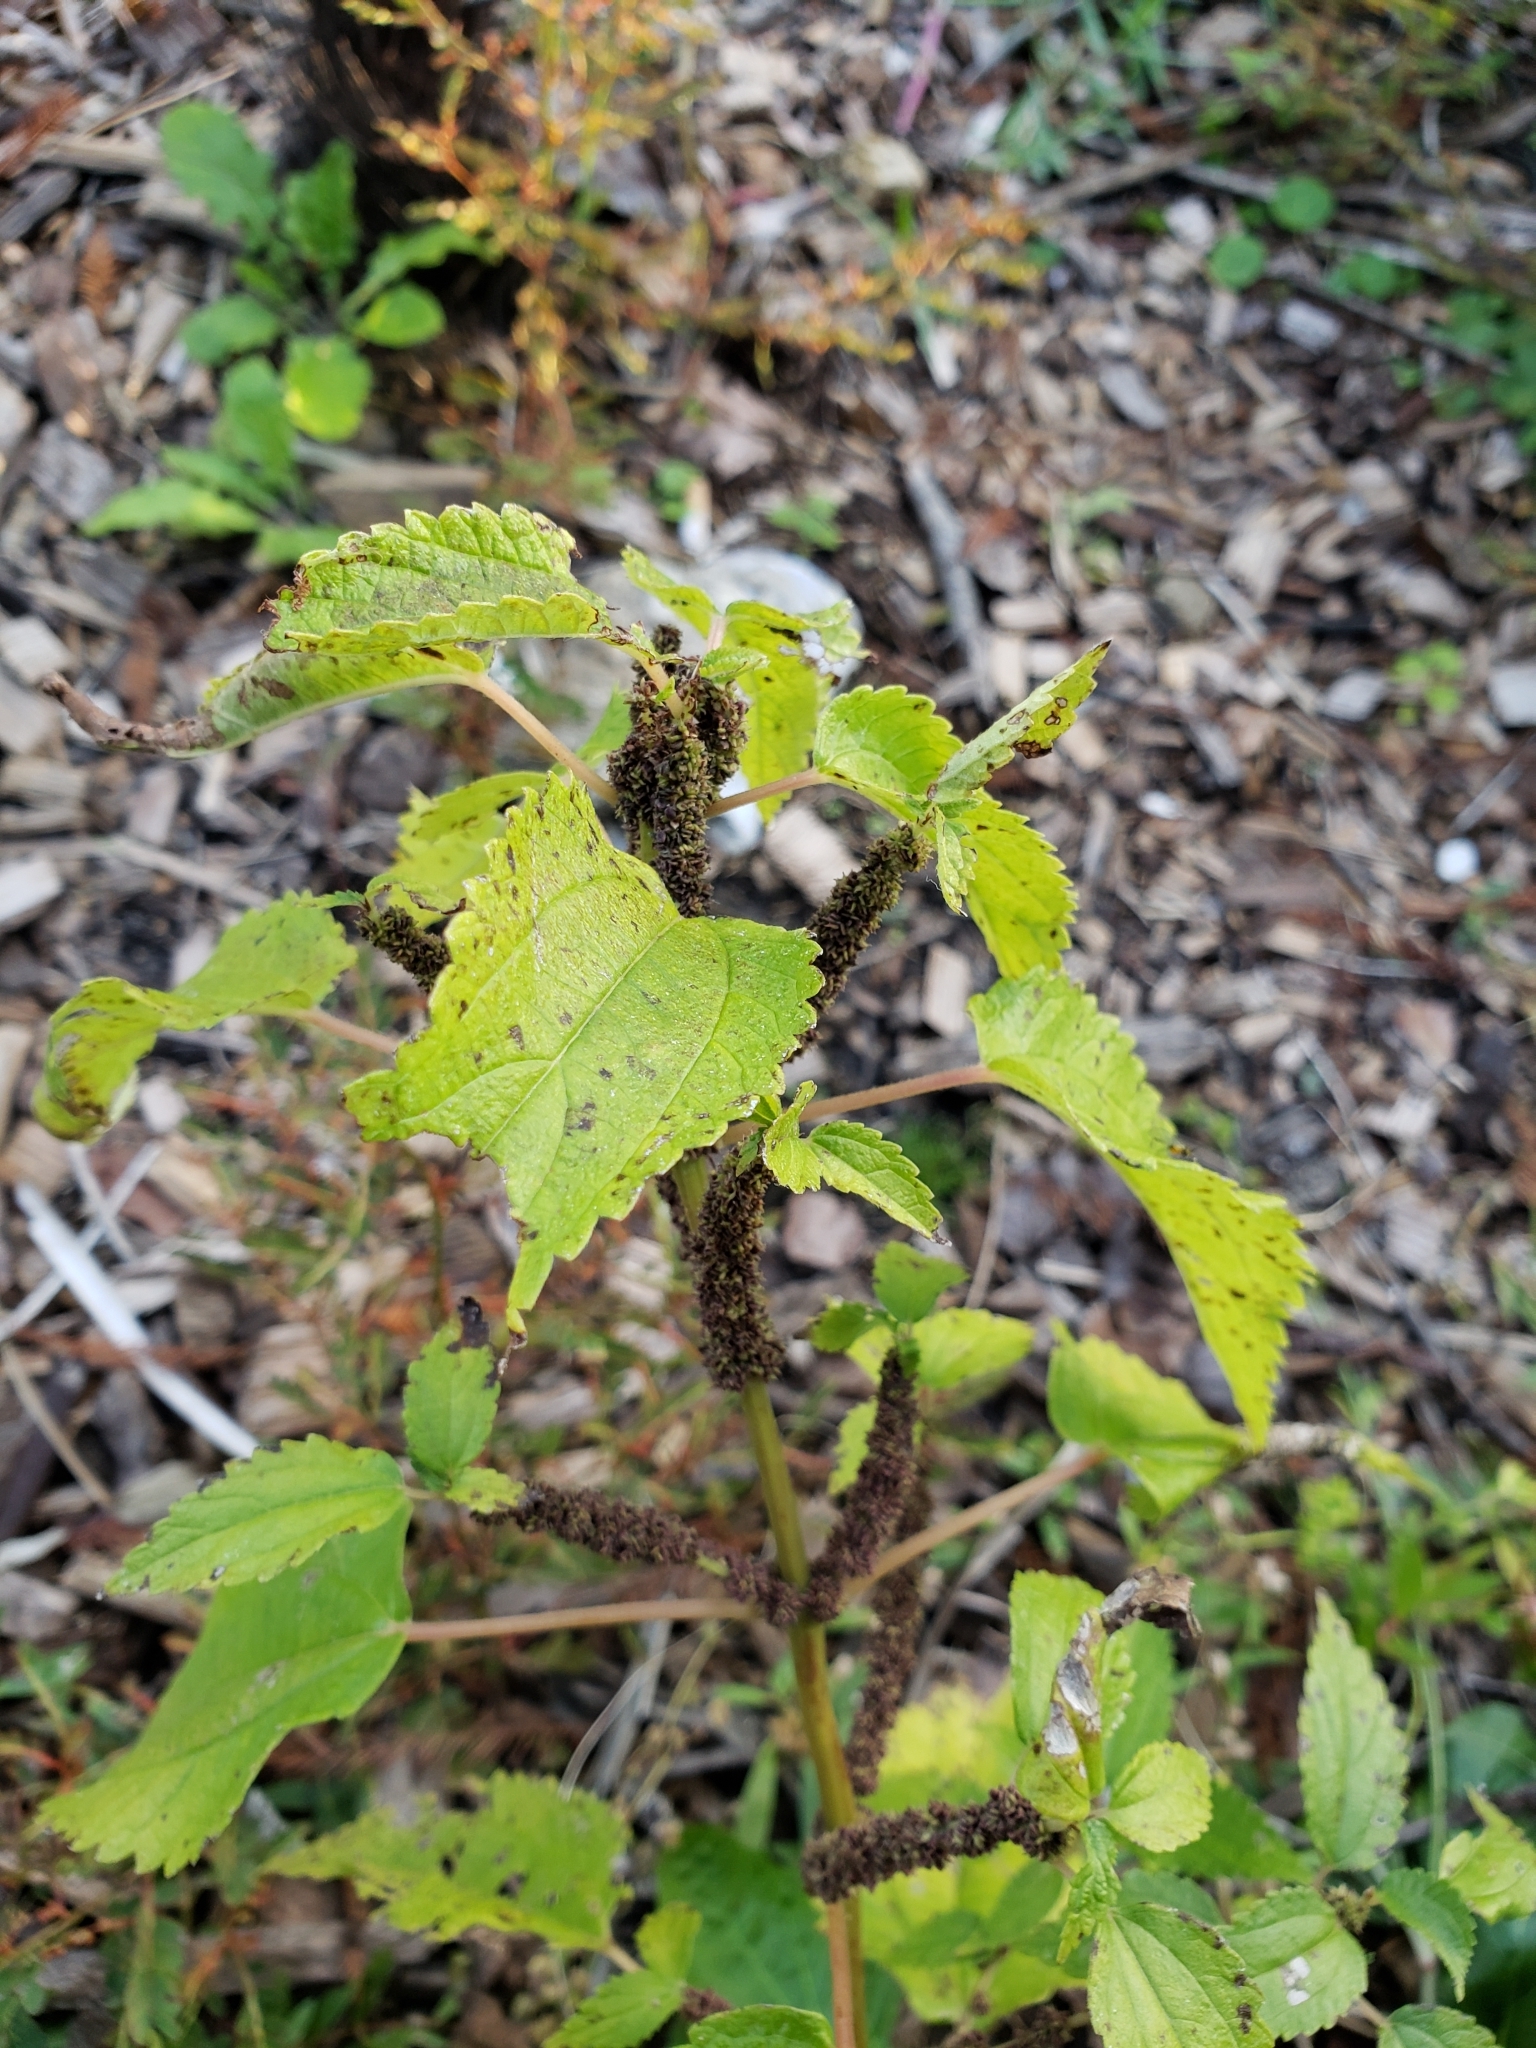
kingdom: Plantae
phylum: Tracheophyta
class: Magnoliopsida
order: Rosales
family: Urticaceae
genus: Boehmeria
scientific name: Boehmeria cylindrica
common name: Bog-hemp
